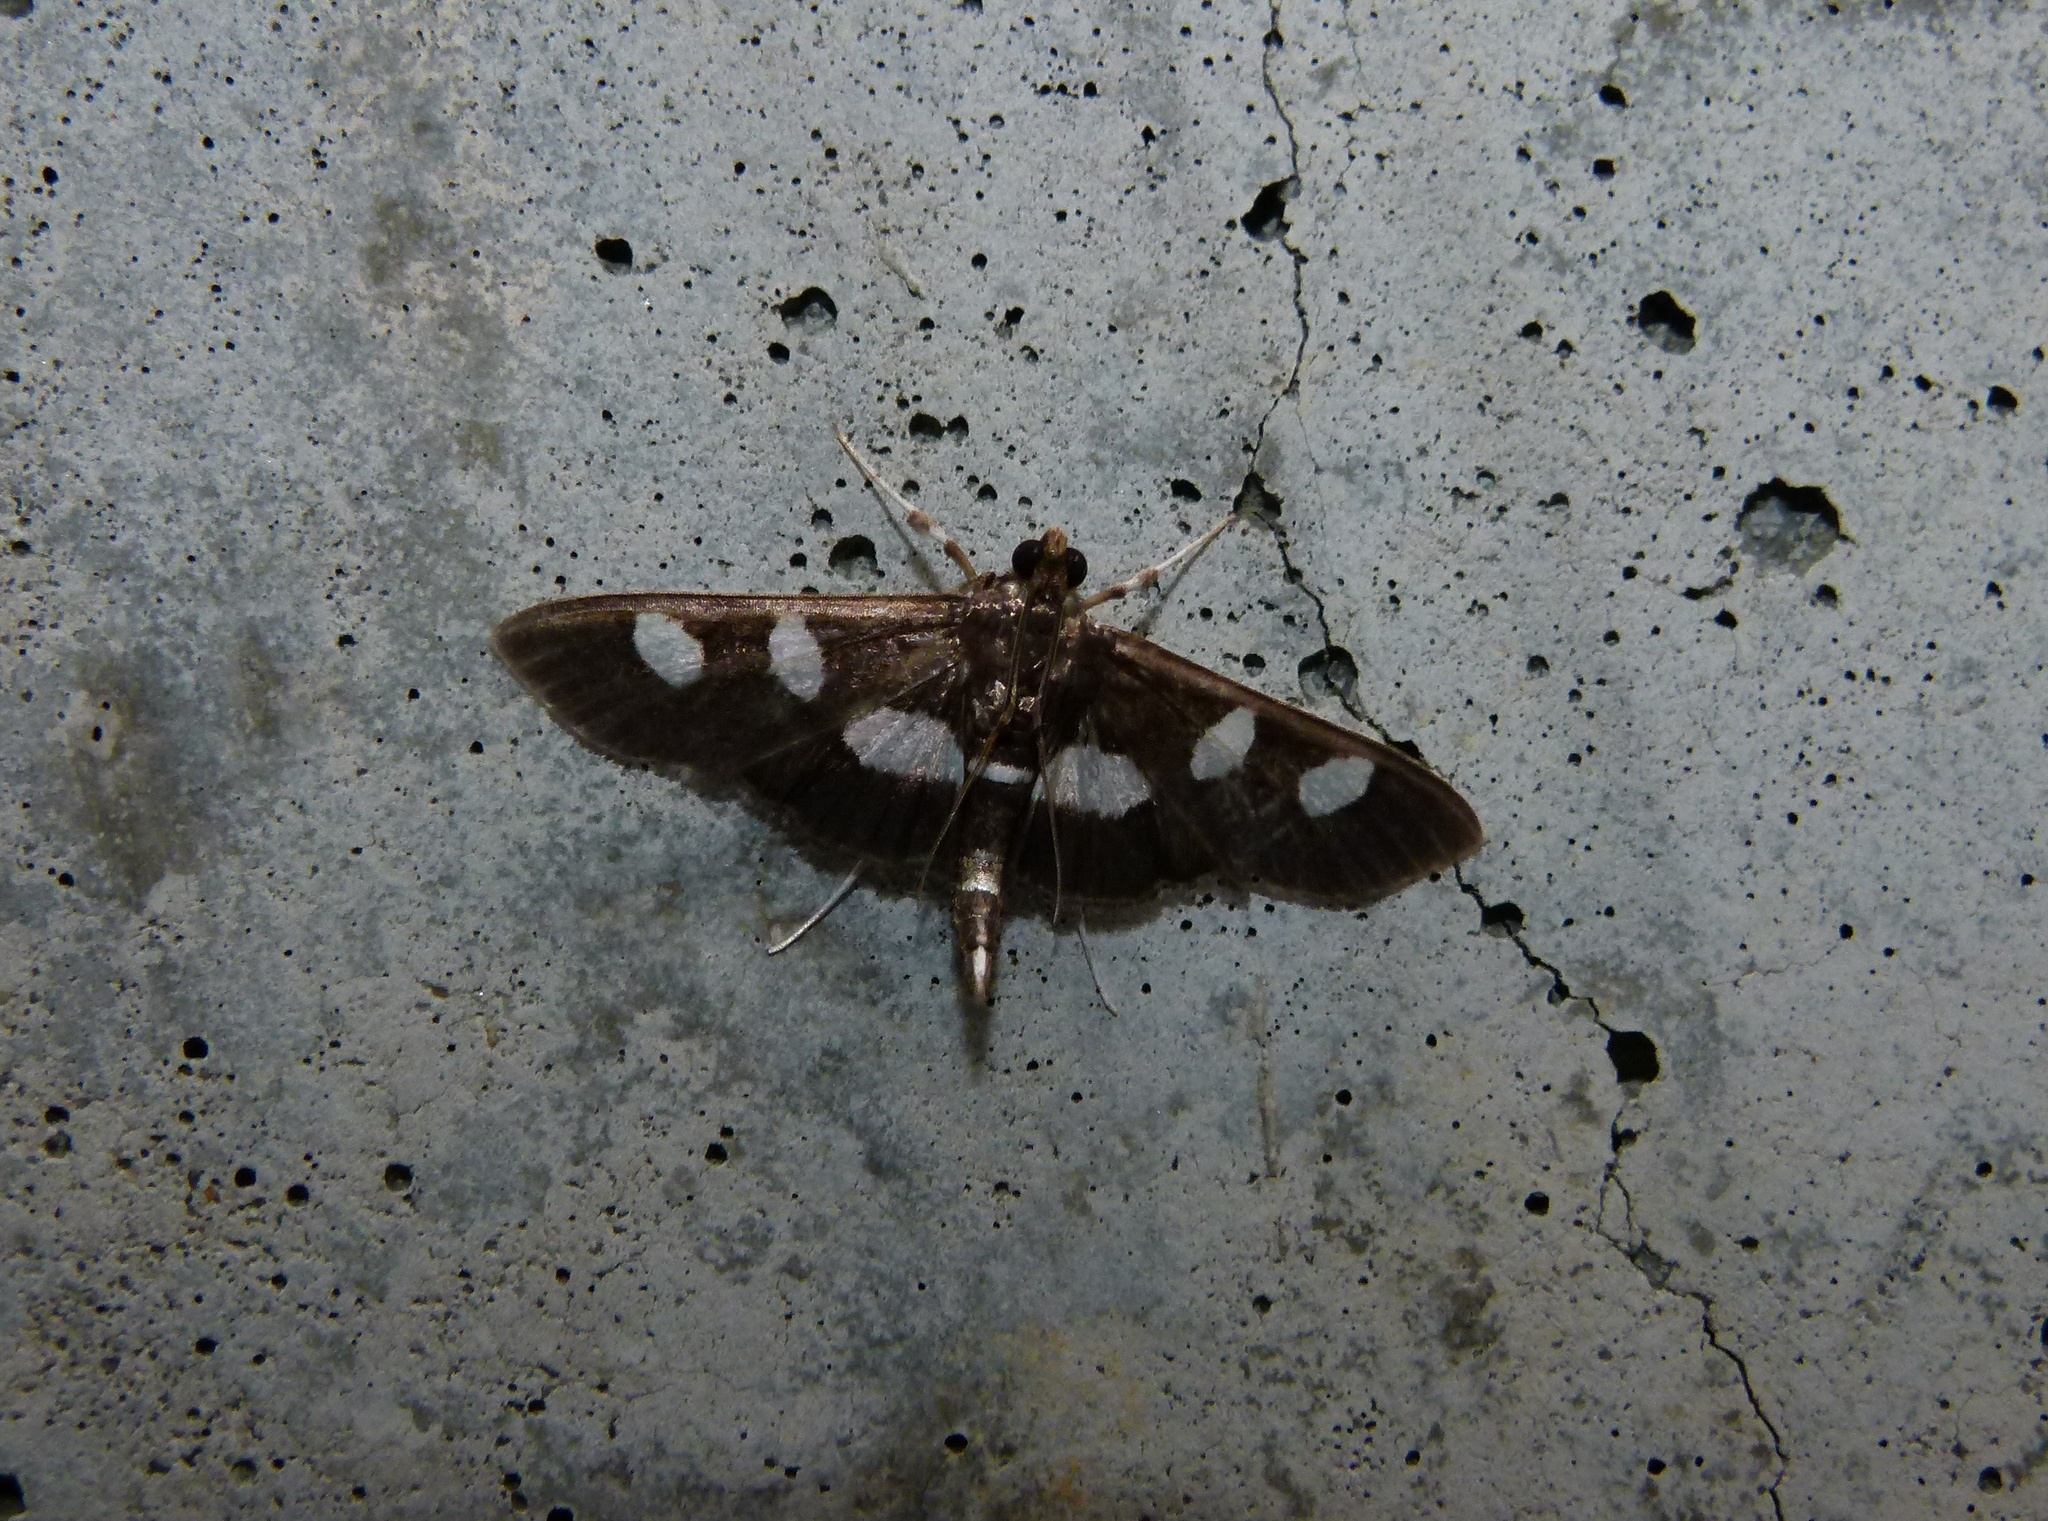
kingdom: Animalia
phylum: Arthropoda
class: Insecta
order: Lepidoptera
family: Crambidae
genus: Desmia
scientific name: Desmia
